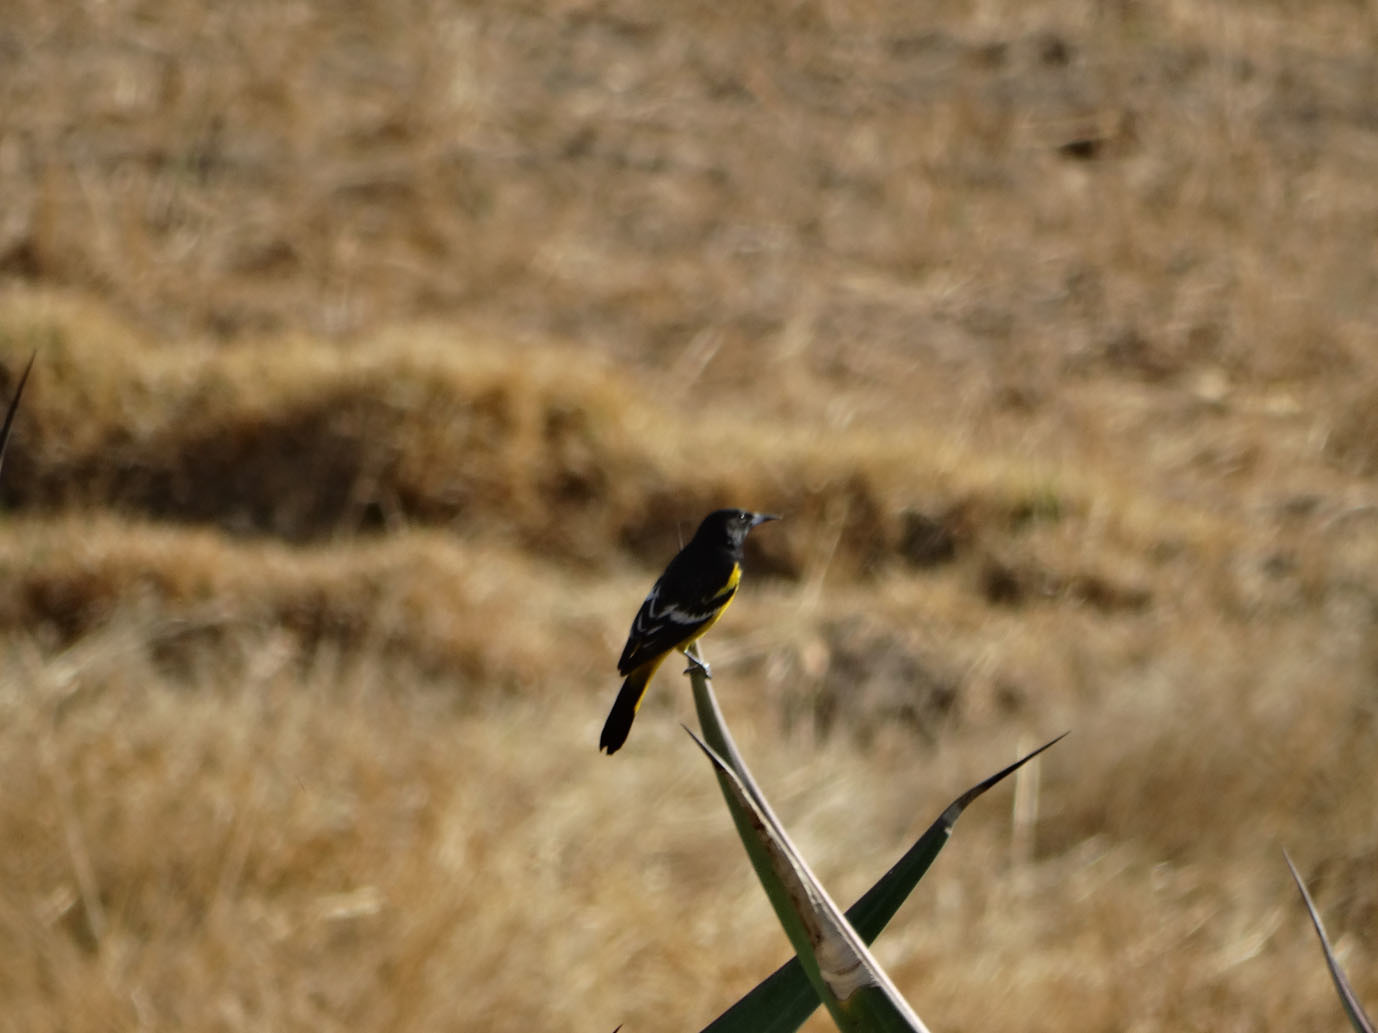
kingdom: Animalia
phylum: Chordata
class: Aves
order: Passeriformes
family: Icteridae
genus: Icterus
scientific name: Icterus parisorum
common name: Scott's oriole
